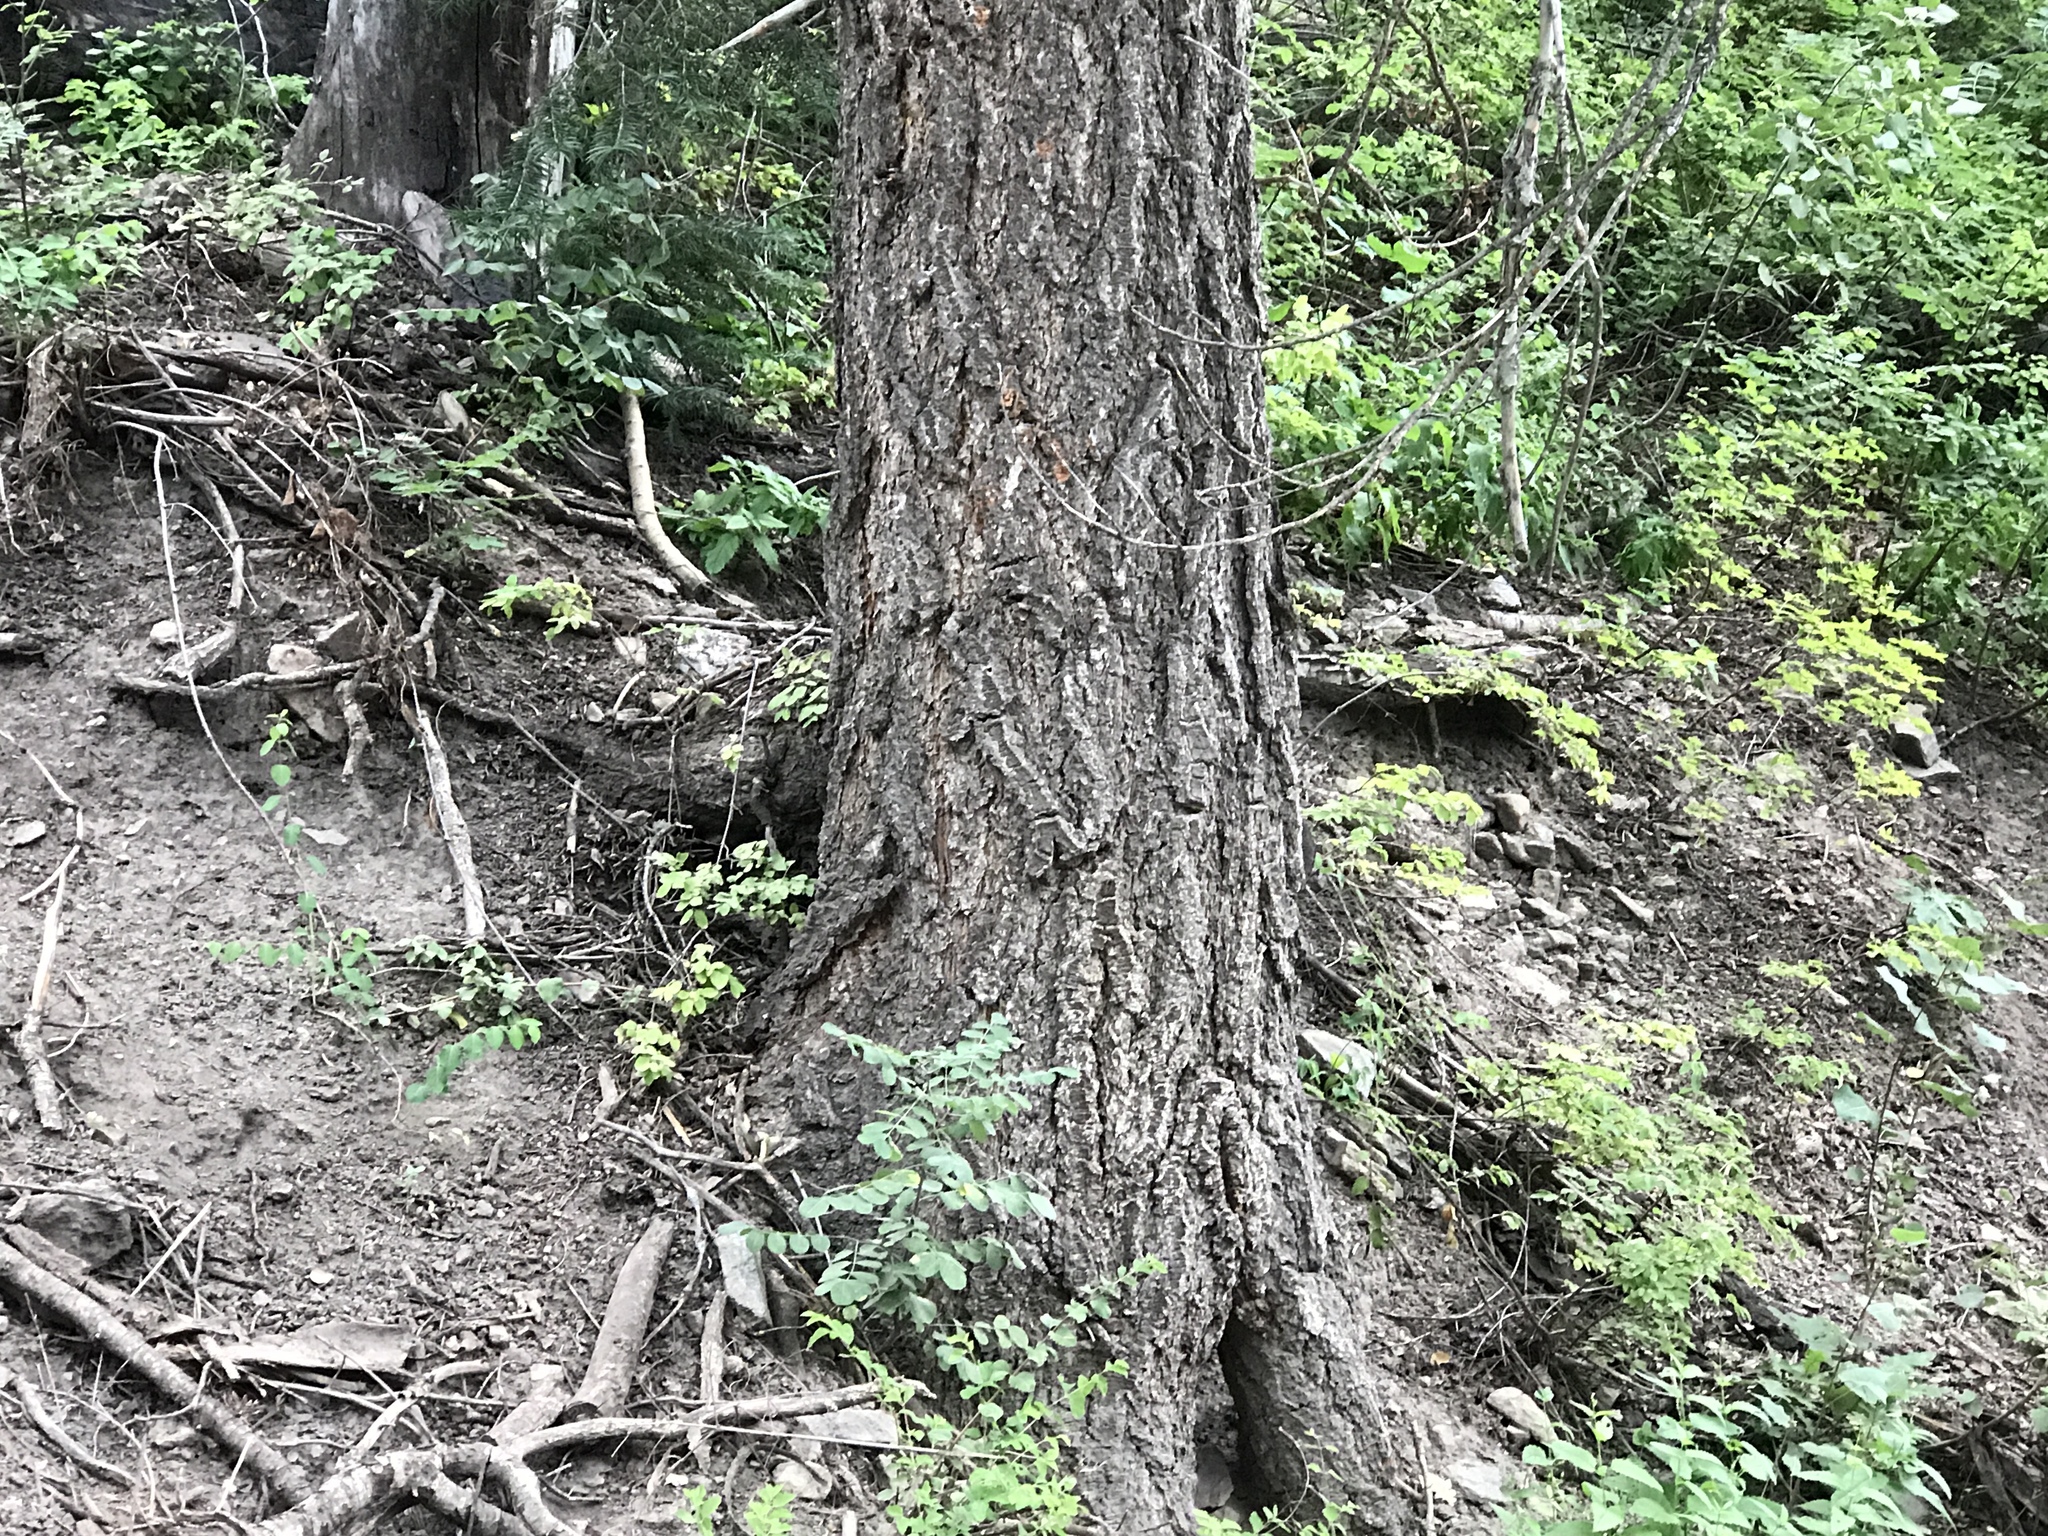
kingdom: Plantae
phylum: Tracheophyta
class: Pinopsida
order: Pinales
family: Pinaceae
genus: Pseudotsuga
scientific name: Pseudotsuga menziesii
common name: Douglas fir
